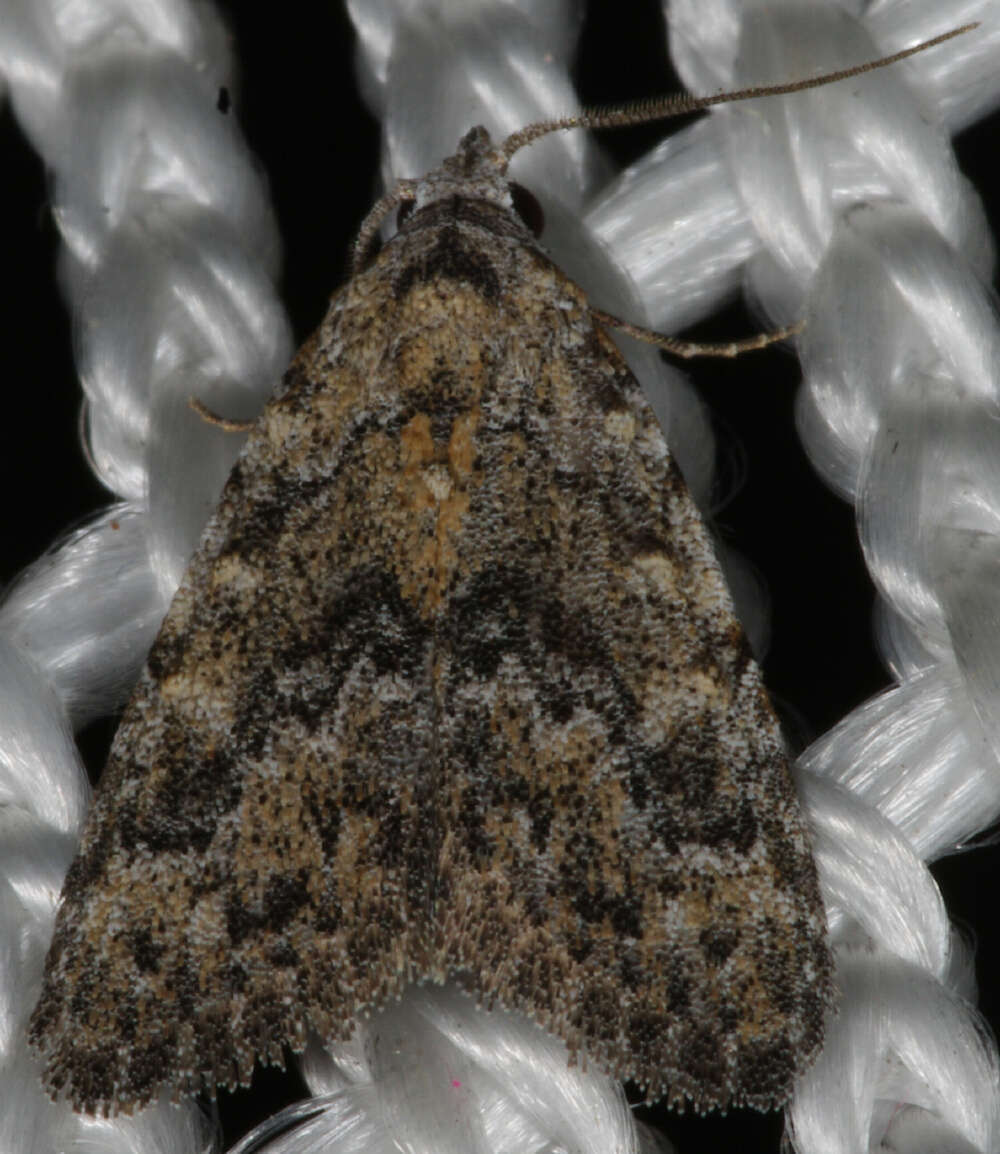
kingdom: Animalia
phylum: Arthropoda
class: Insecta
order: Lepidoptera
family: Nolidae
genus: Nola
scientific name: Nola pothina
